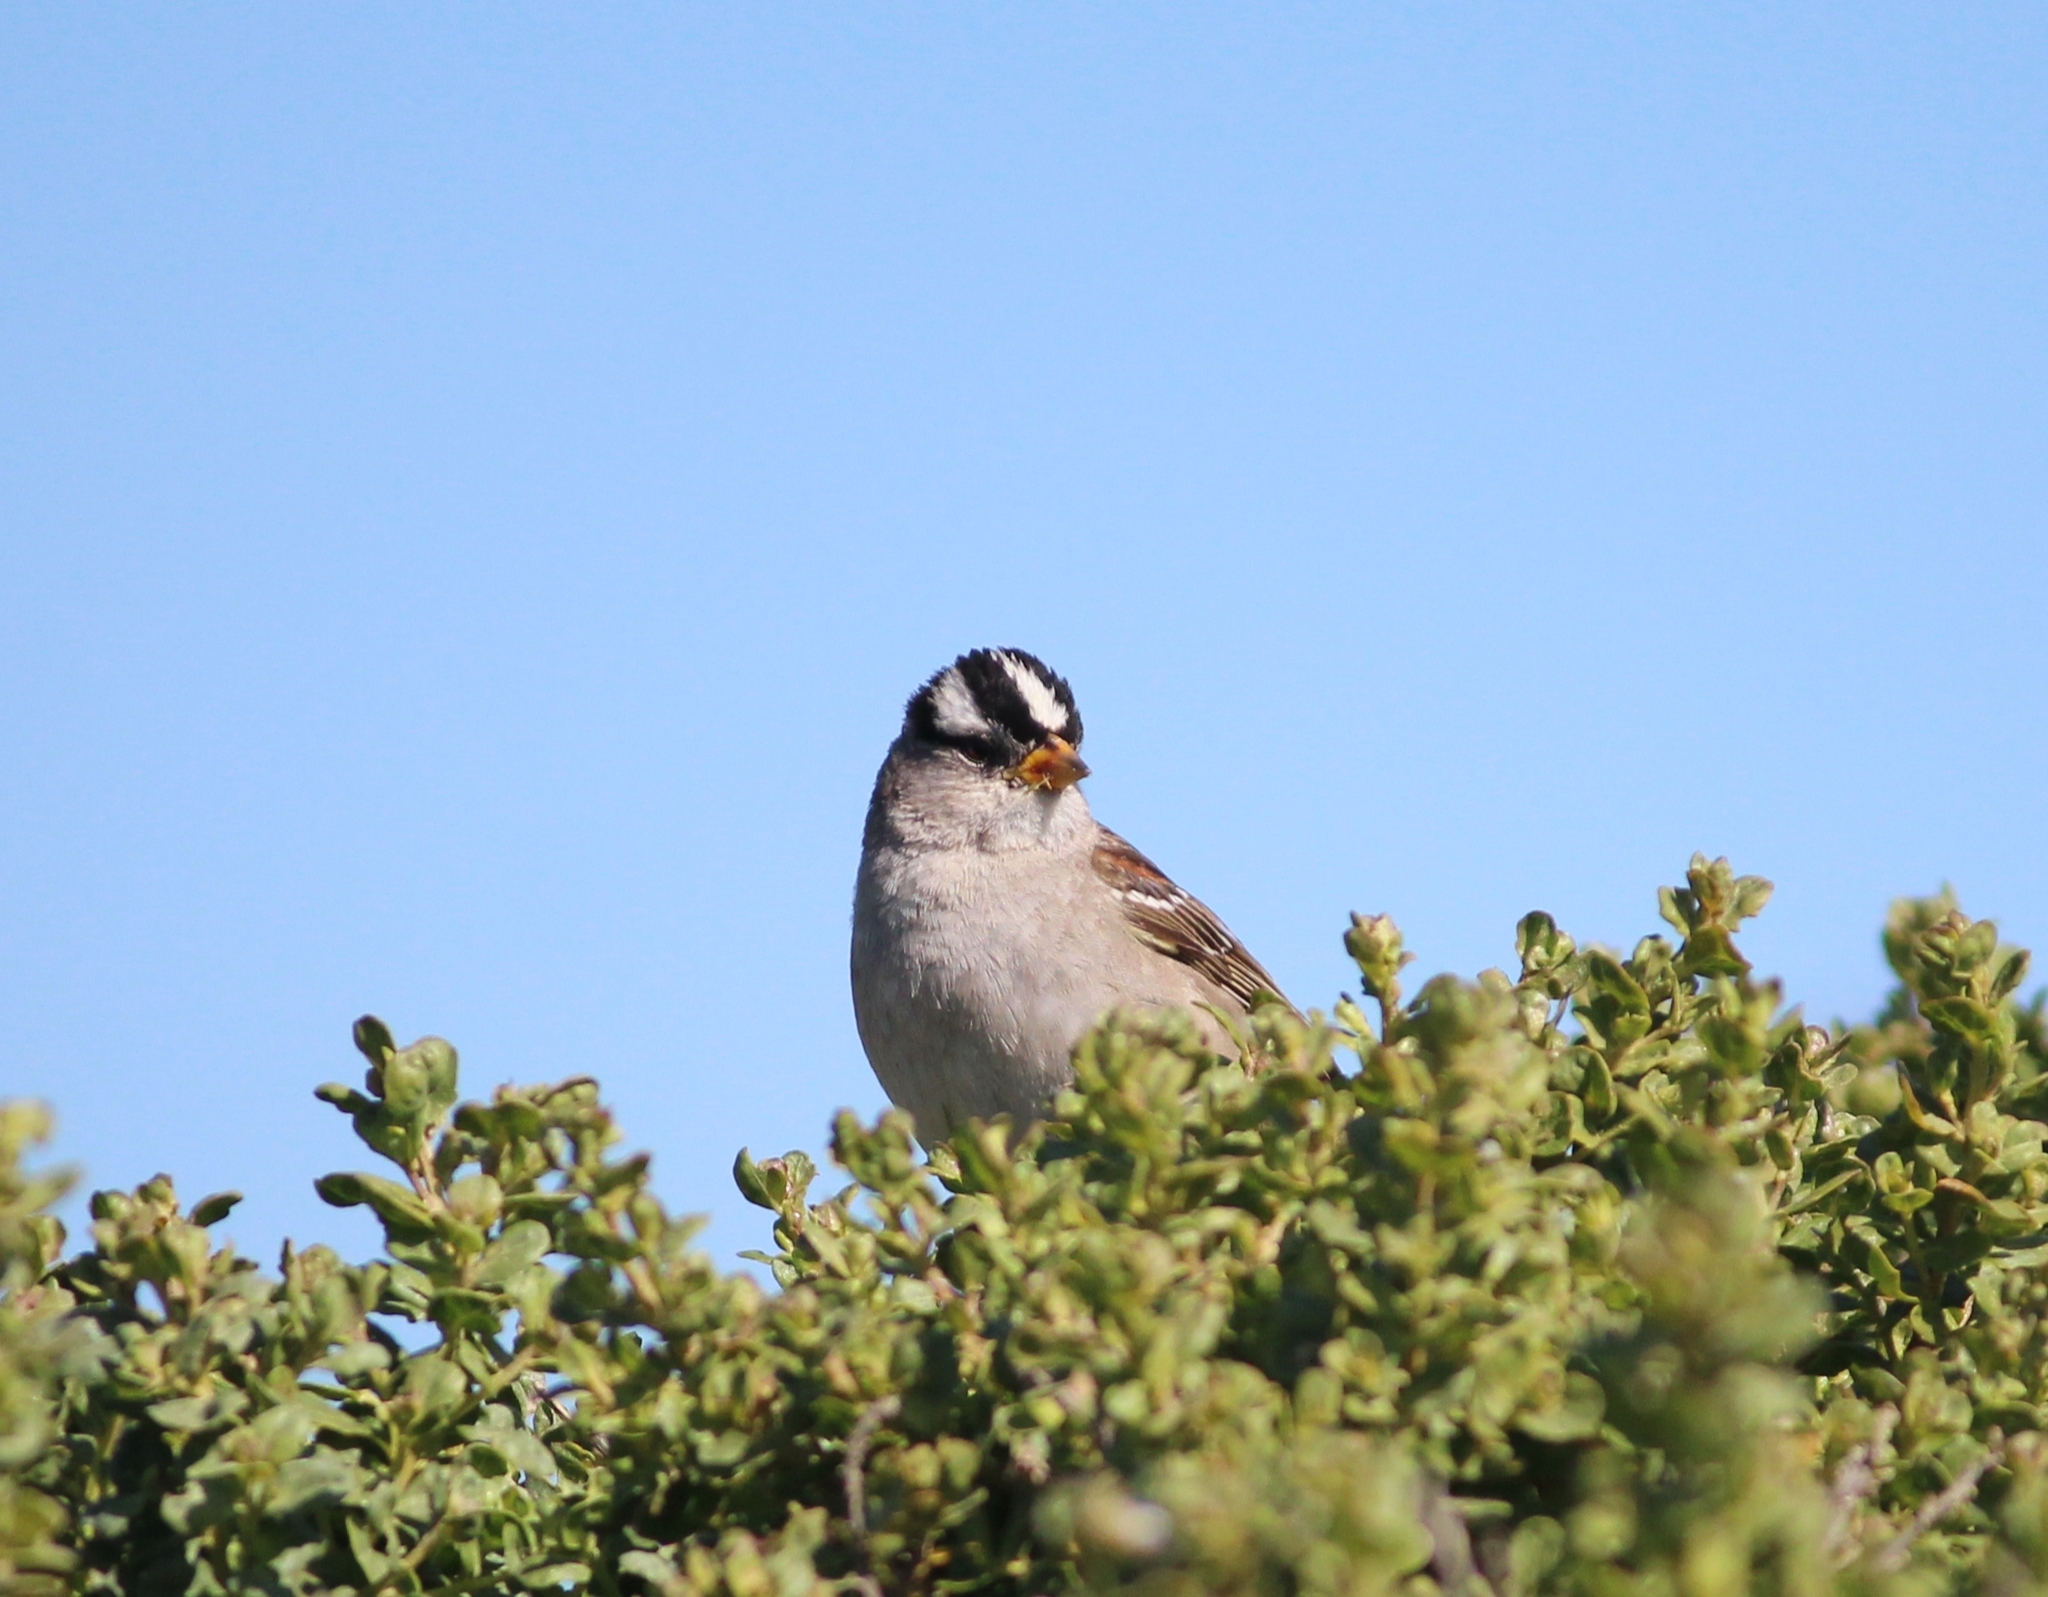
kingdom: Animalia
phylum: Chordata
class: Aves
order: Passeriformes
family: Passerellidae
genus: Zonotrichia
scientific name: Zonotrichia leucophrys
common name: White-crowned sparrow
